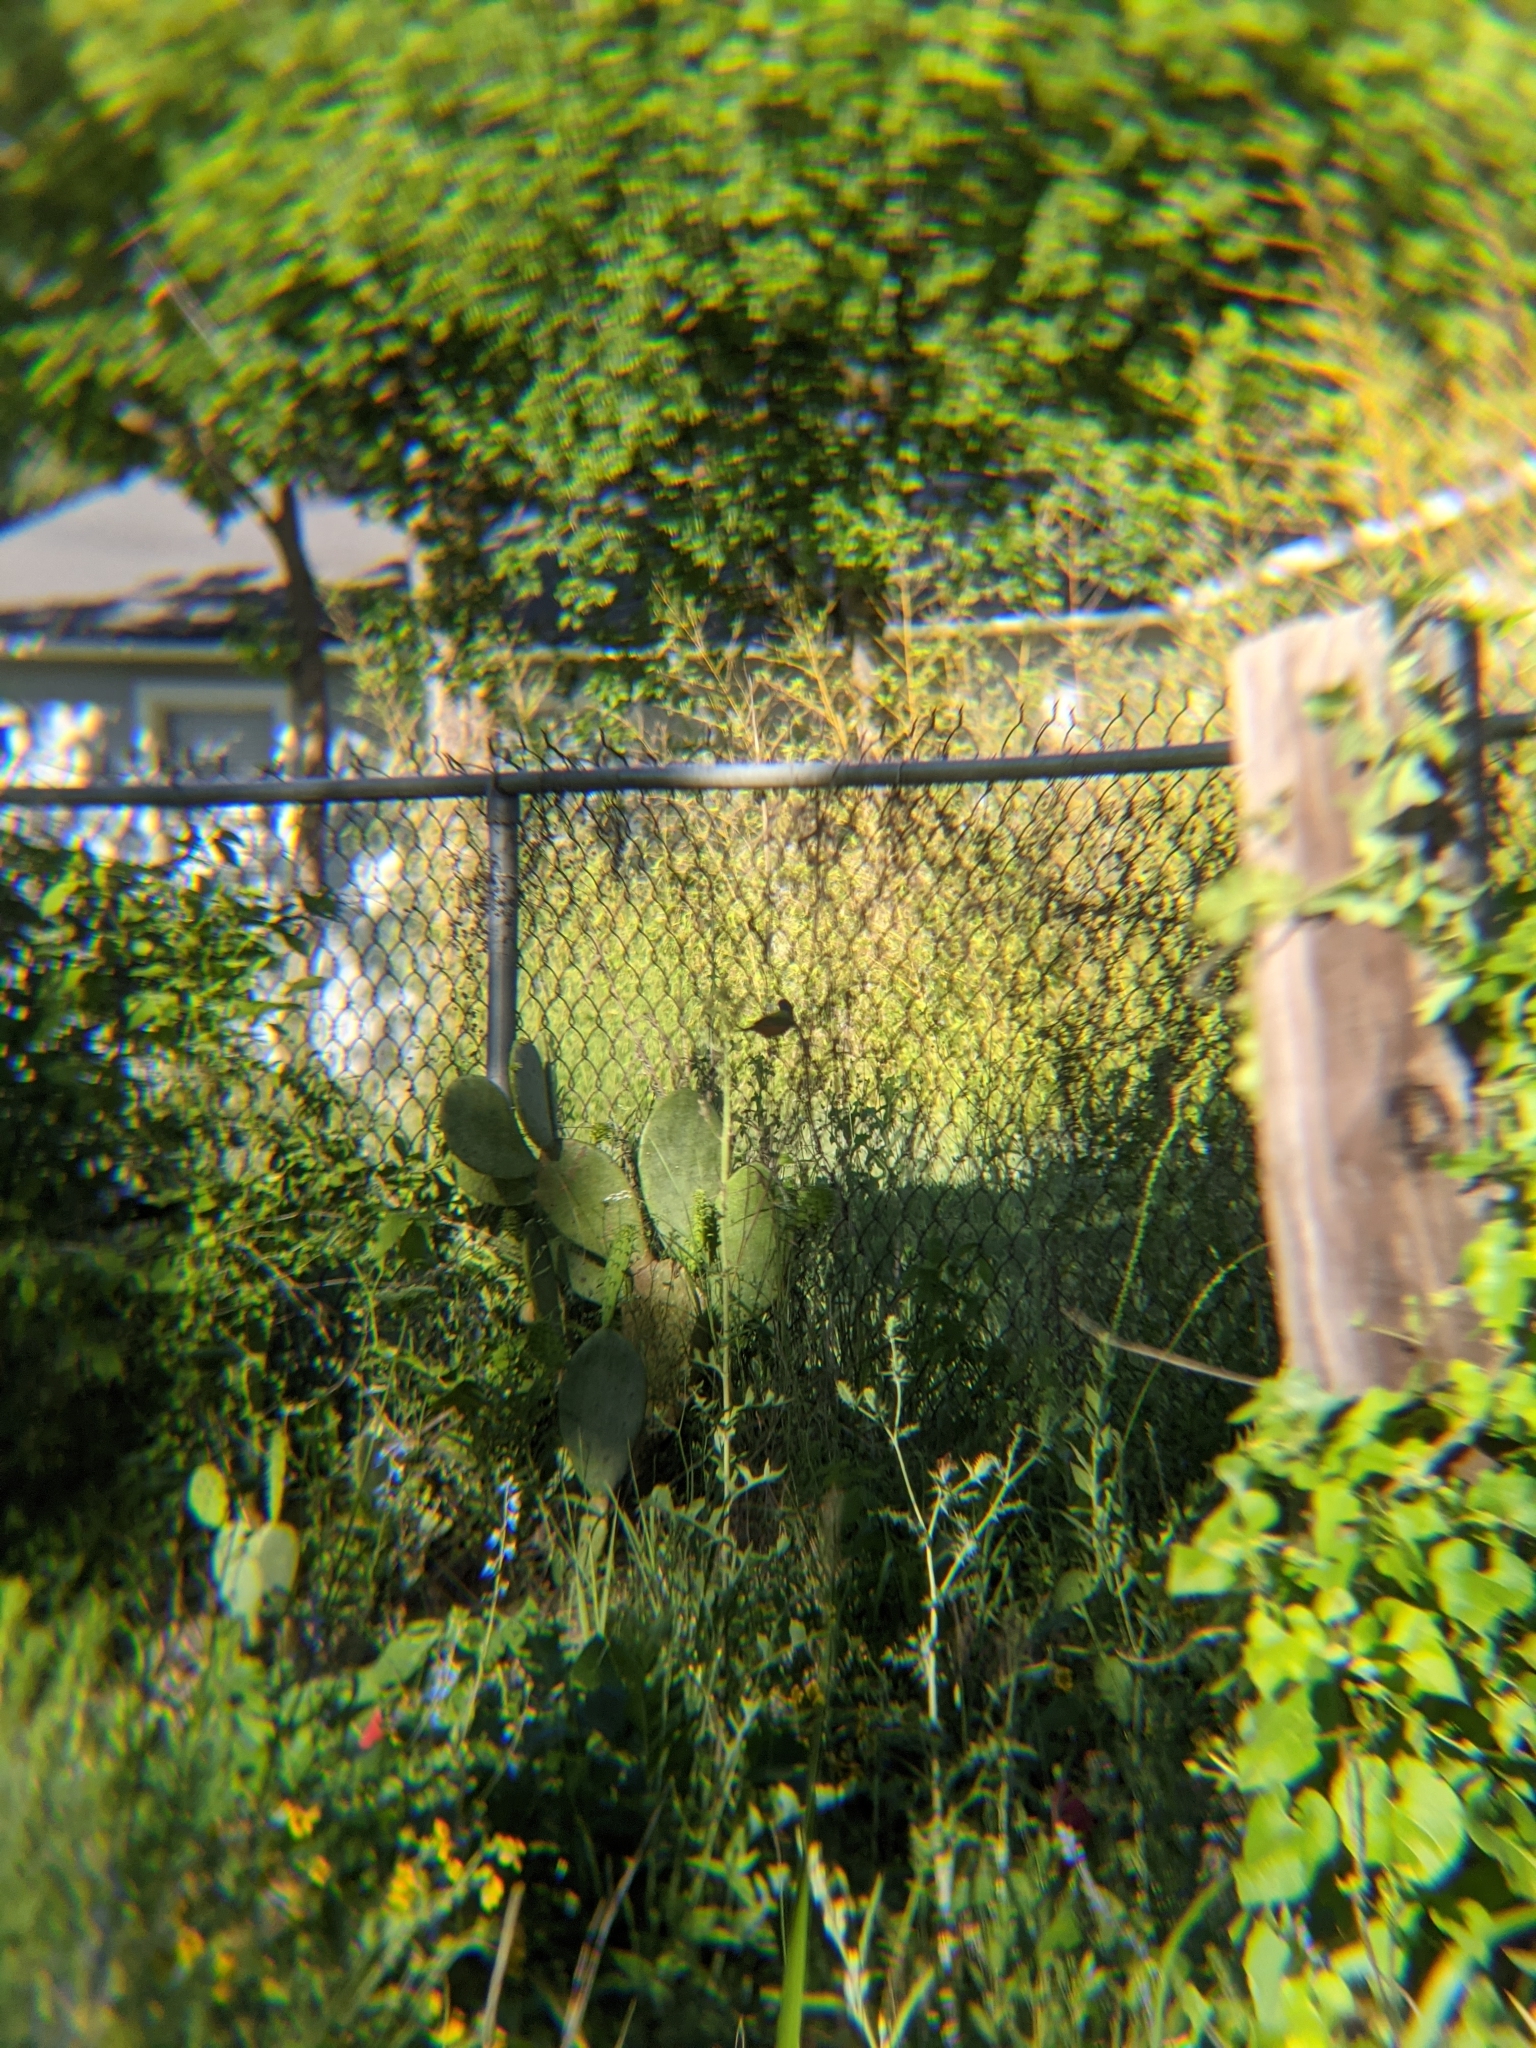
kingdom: Animalia
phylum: Chordata
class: Aves
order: Passeriformes
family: Cardinalidae
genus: Passerina
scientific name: Passerina ciris
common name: Painted bunting
